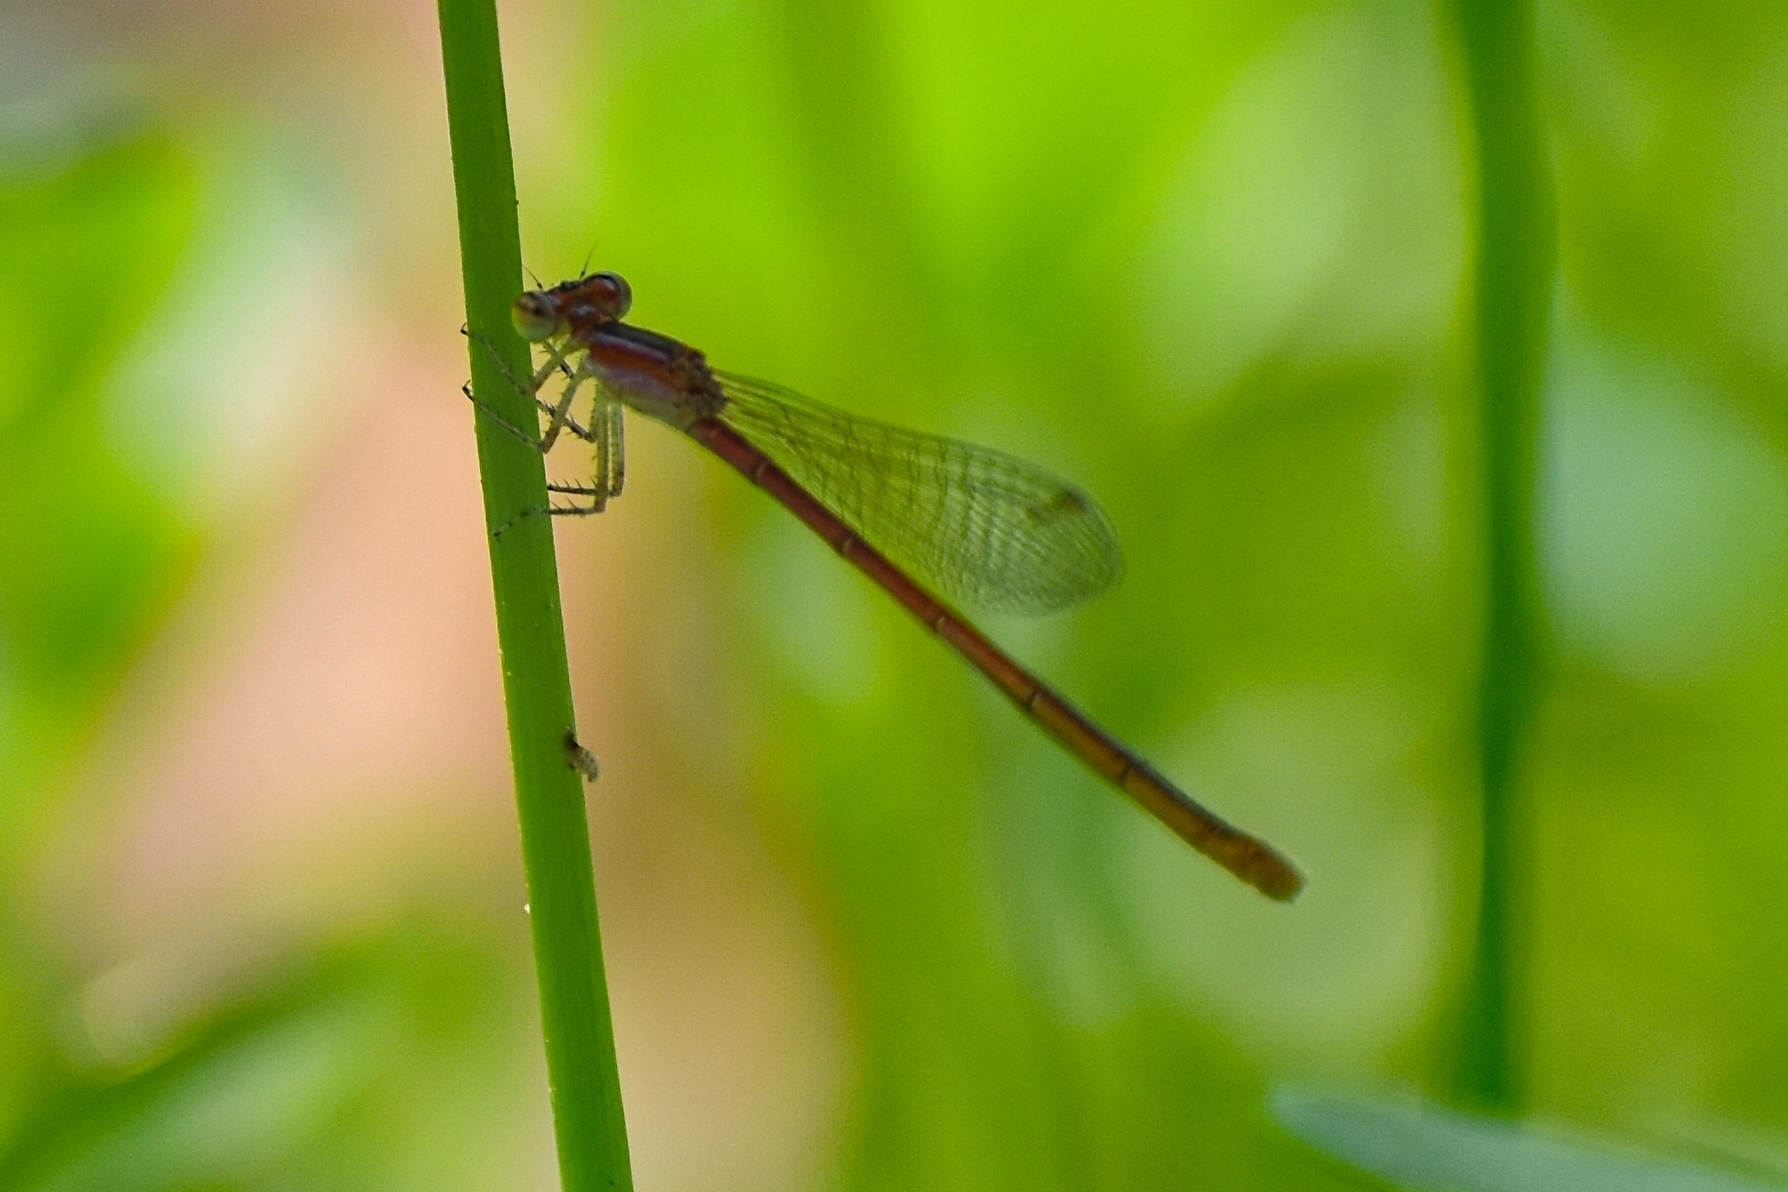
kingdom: Animalia
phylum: Arthropoda
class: Insecta
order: Odonata
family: Coenagrionidae
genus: Agriocnemis
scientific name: Agriocnemis pygmaea
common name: Pygmy wisp
